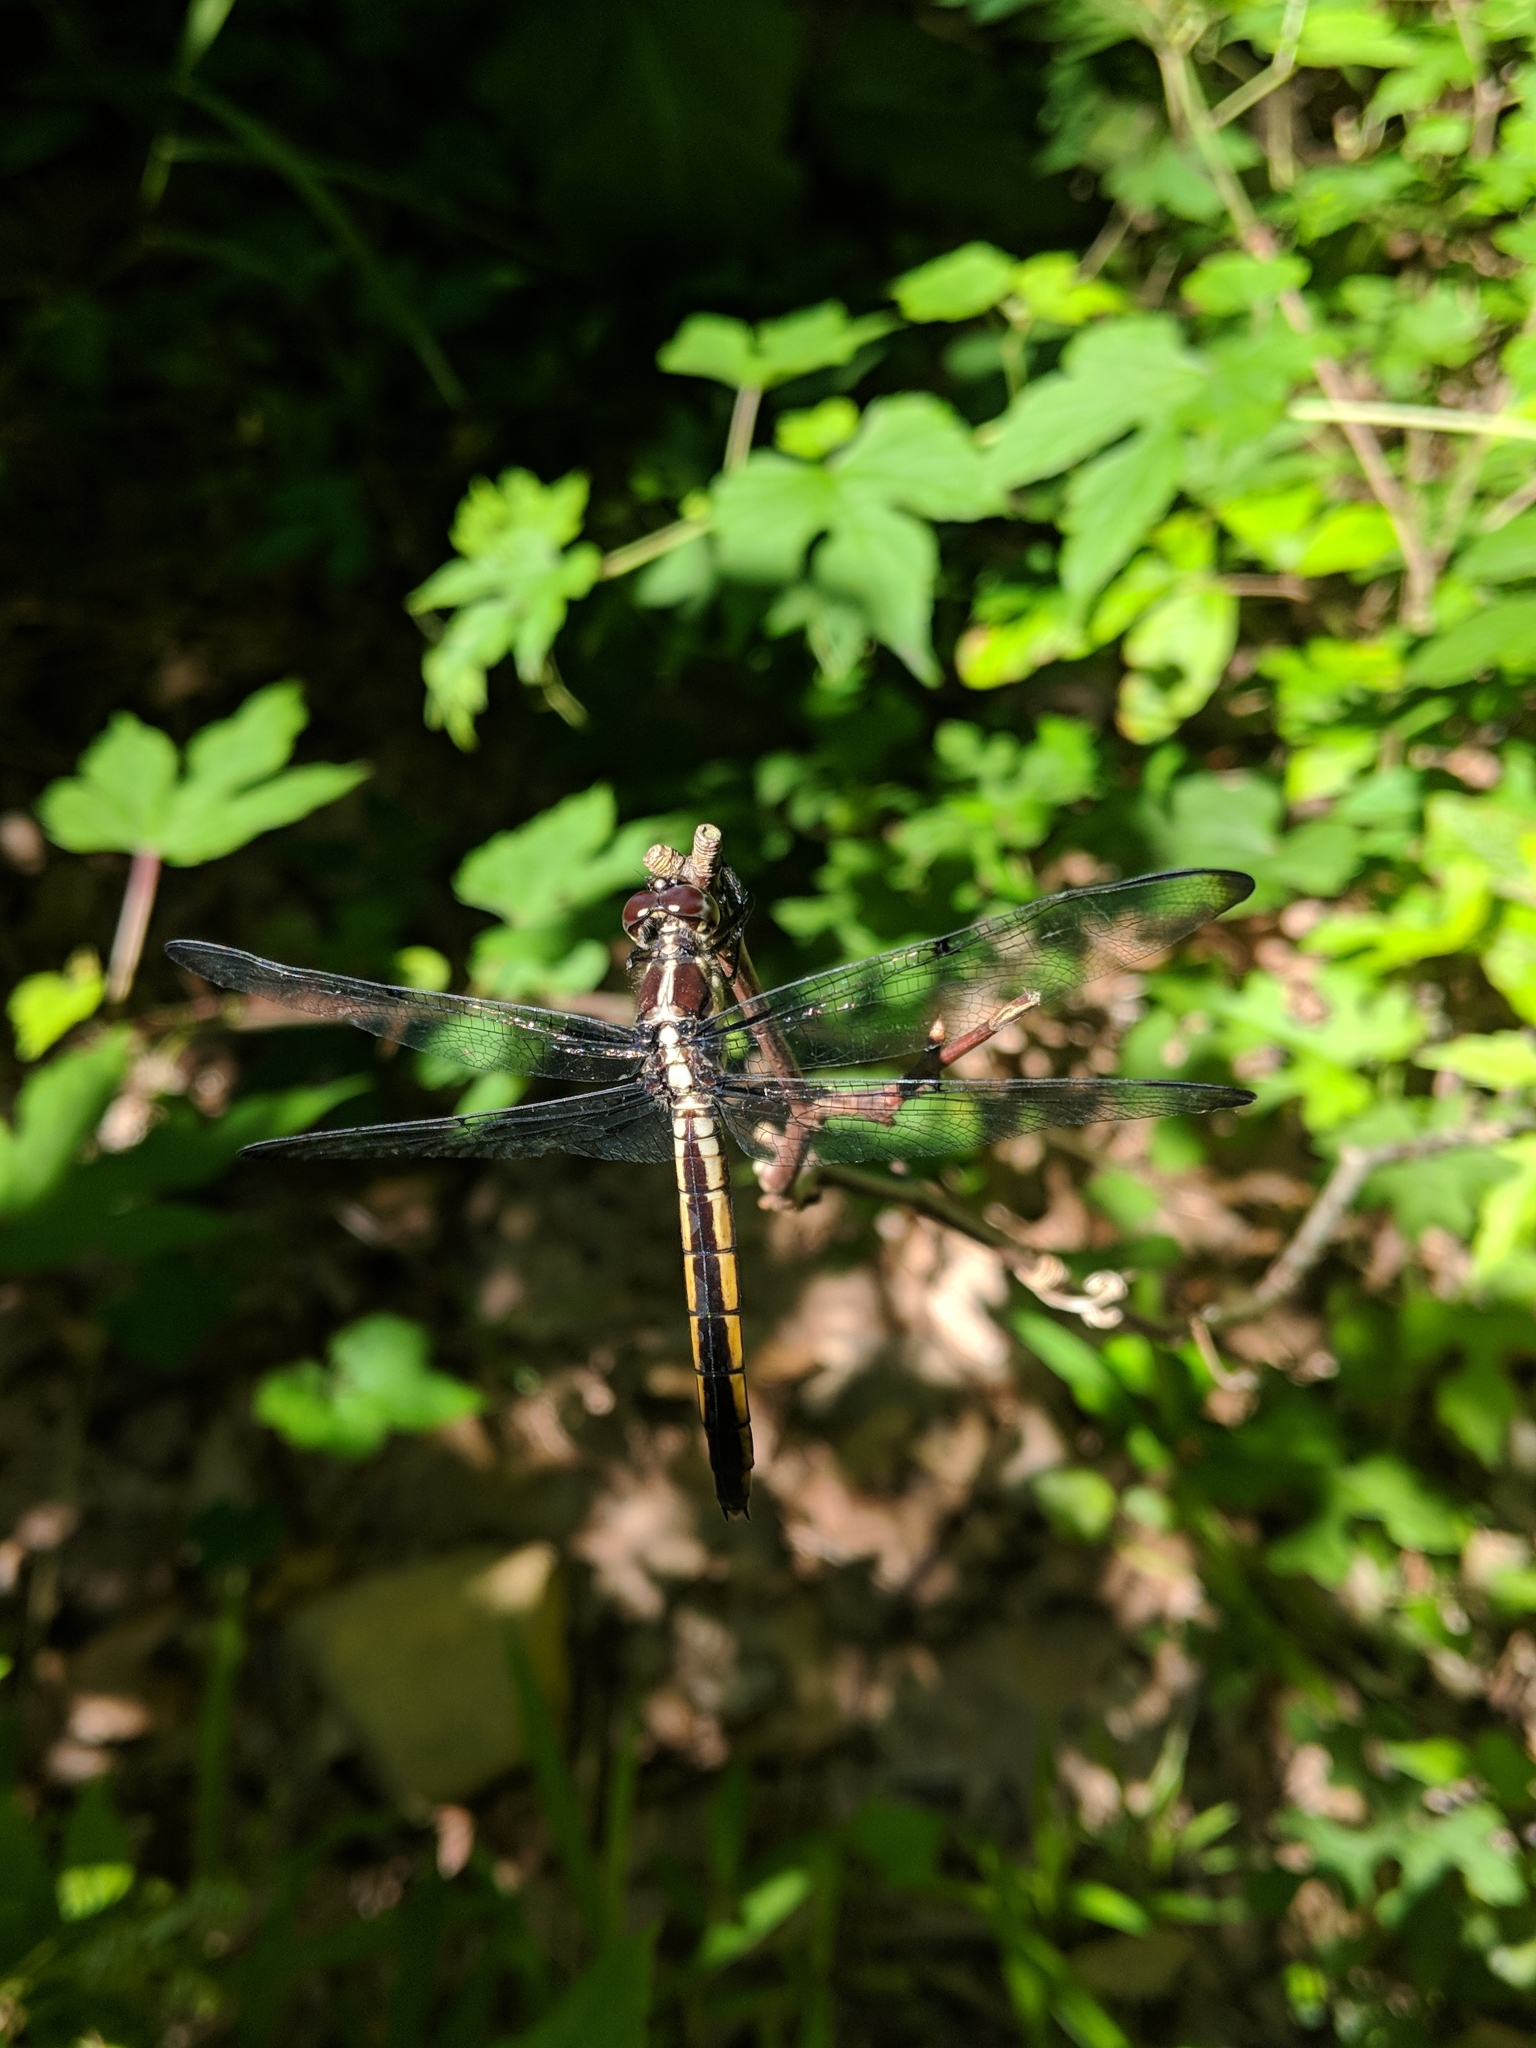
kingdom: Animalia
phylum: Arthropoda
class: Insecta
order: Odonata
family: Libellulidae
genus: Libellula
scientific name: Libellula incesta
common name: Slaty skimmer
